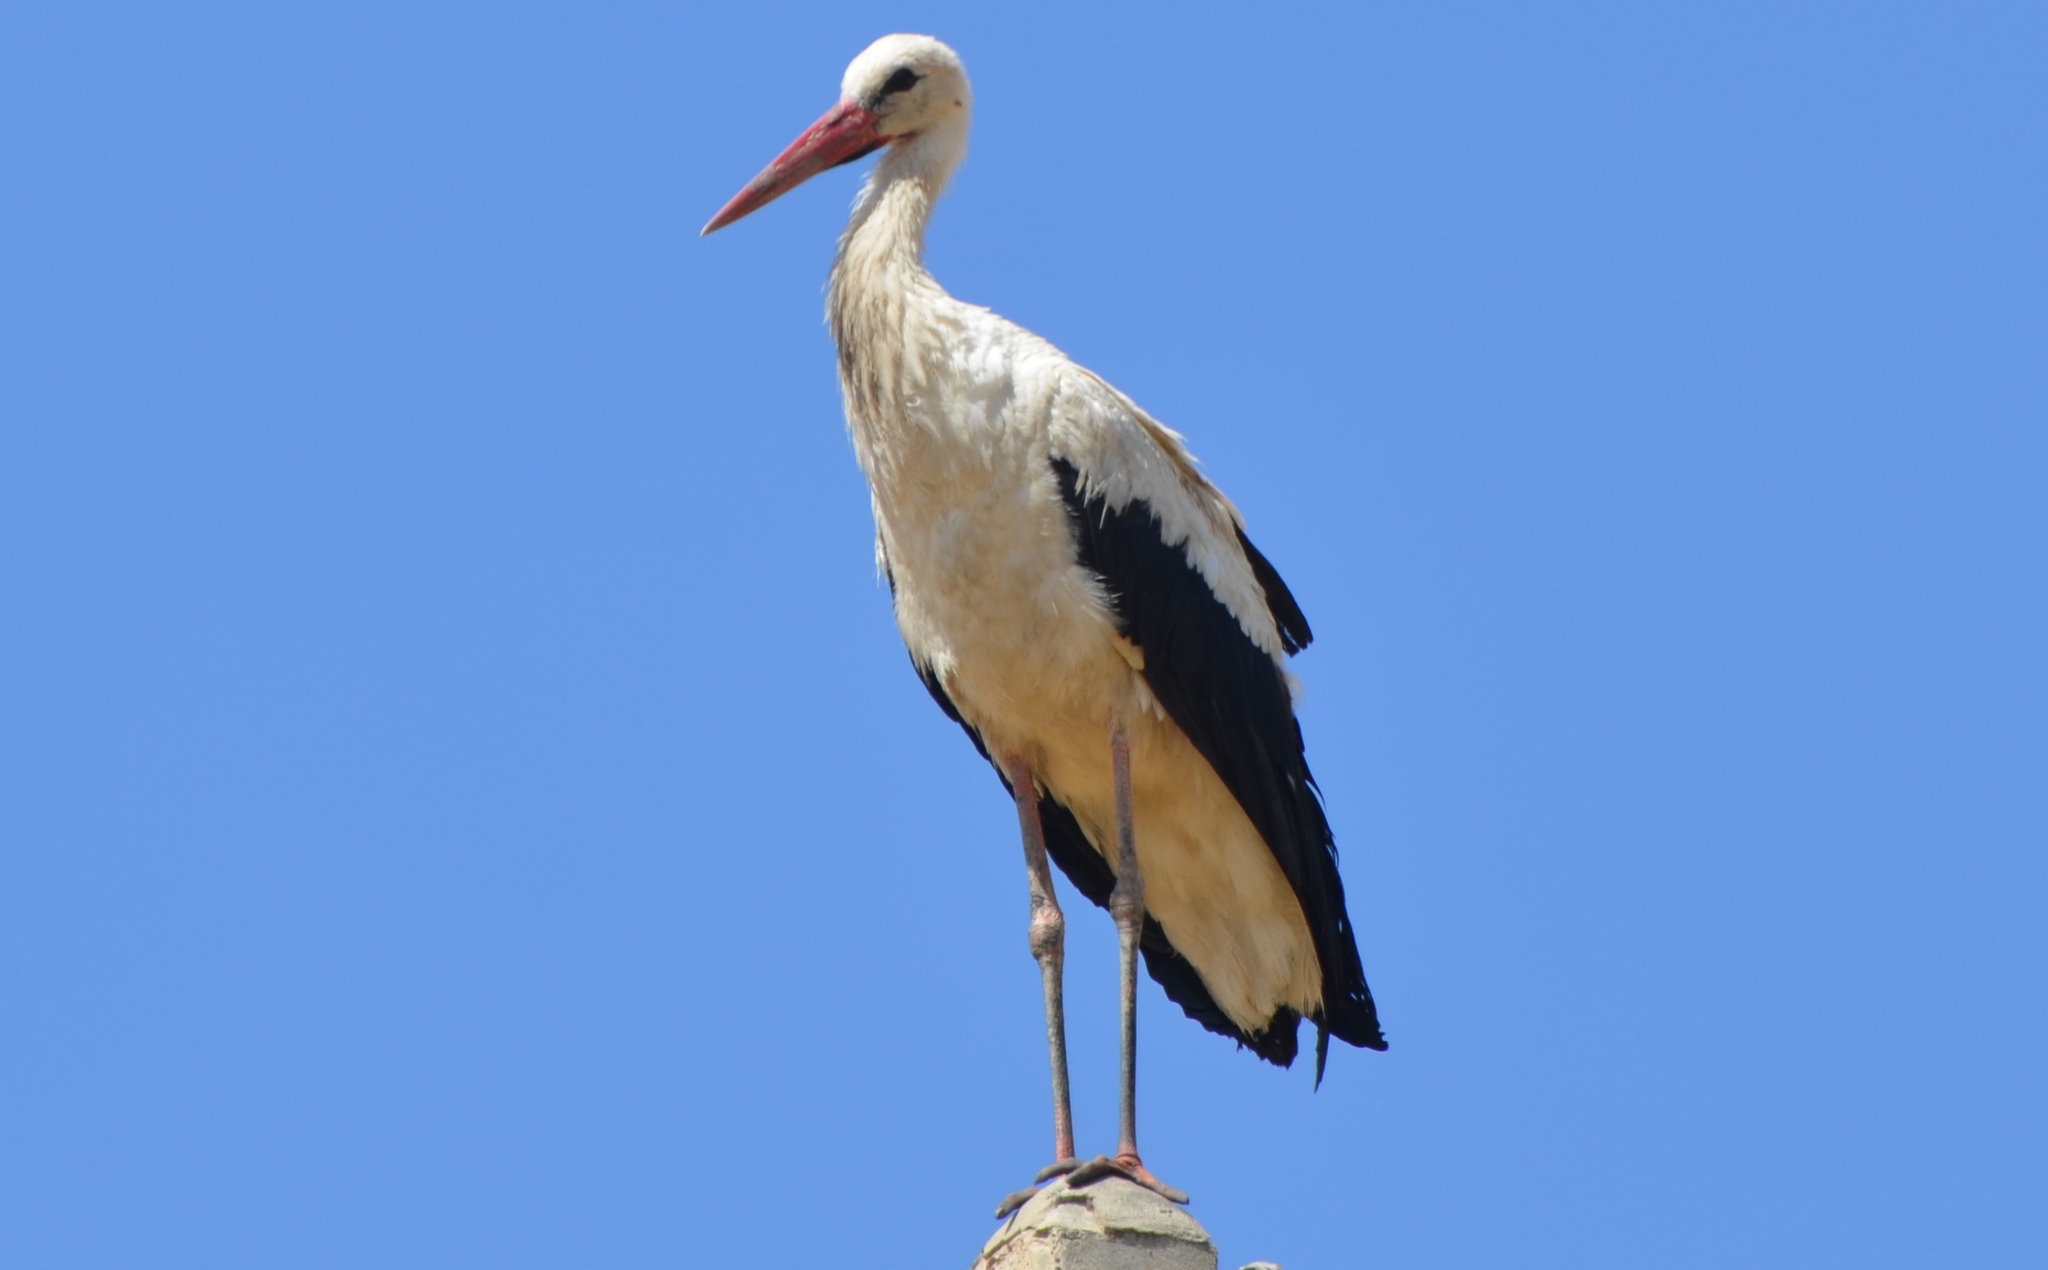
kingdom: Animalia
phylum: Chordata
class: Aves
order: Ciconiiformes
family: Ciconiidae
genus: Ciconia
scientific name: Ciconia ciconia
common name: White stork
